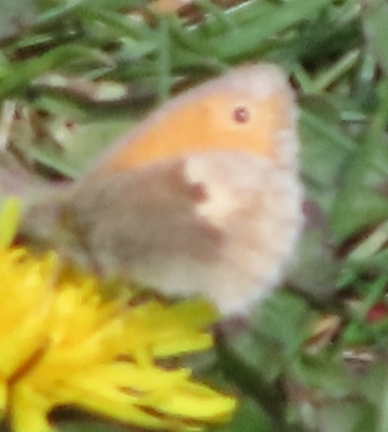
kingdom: Animalia
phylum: Arthropoda
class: Insecta
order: Lepidoptera
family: Nymphalidae
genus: Coenonympha
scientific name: Coenonympha pamphilus
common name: Small heath
